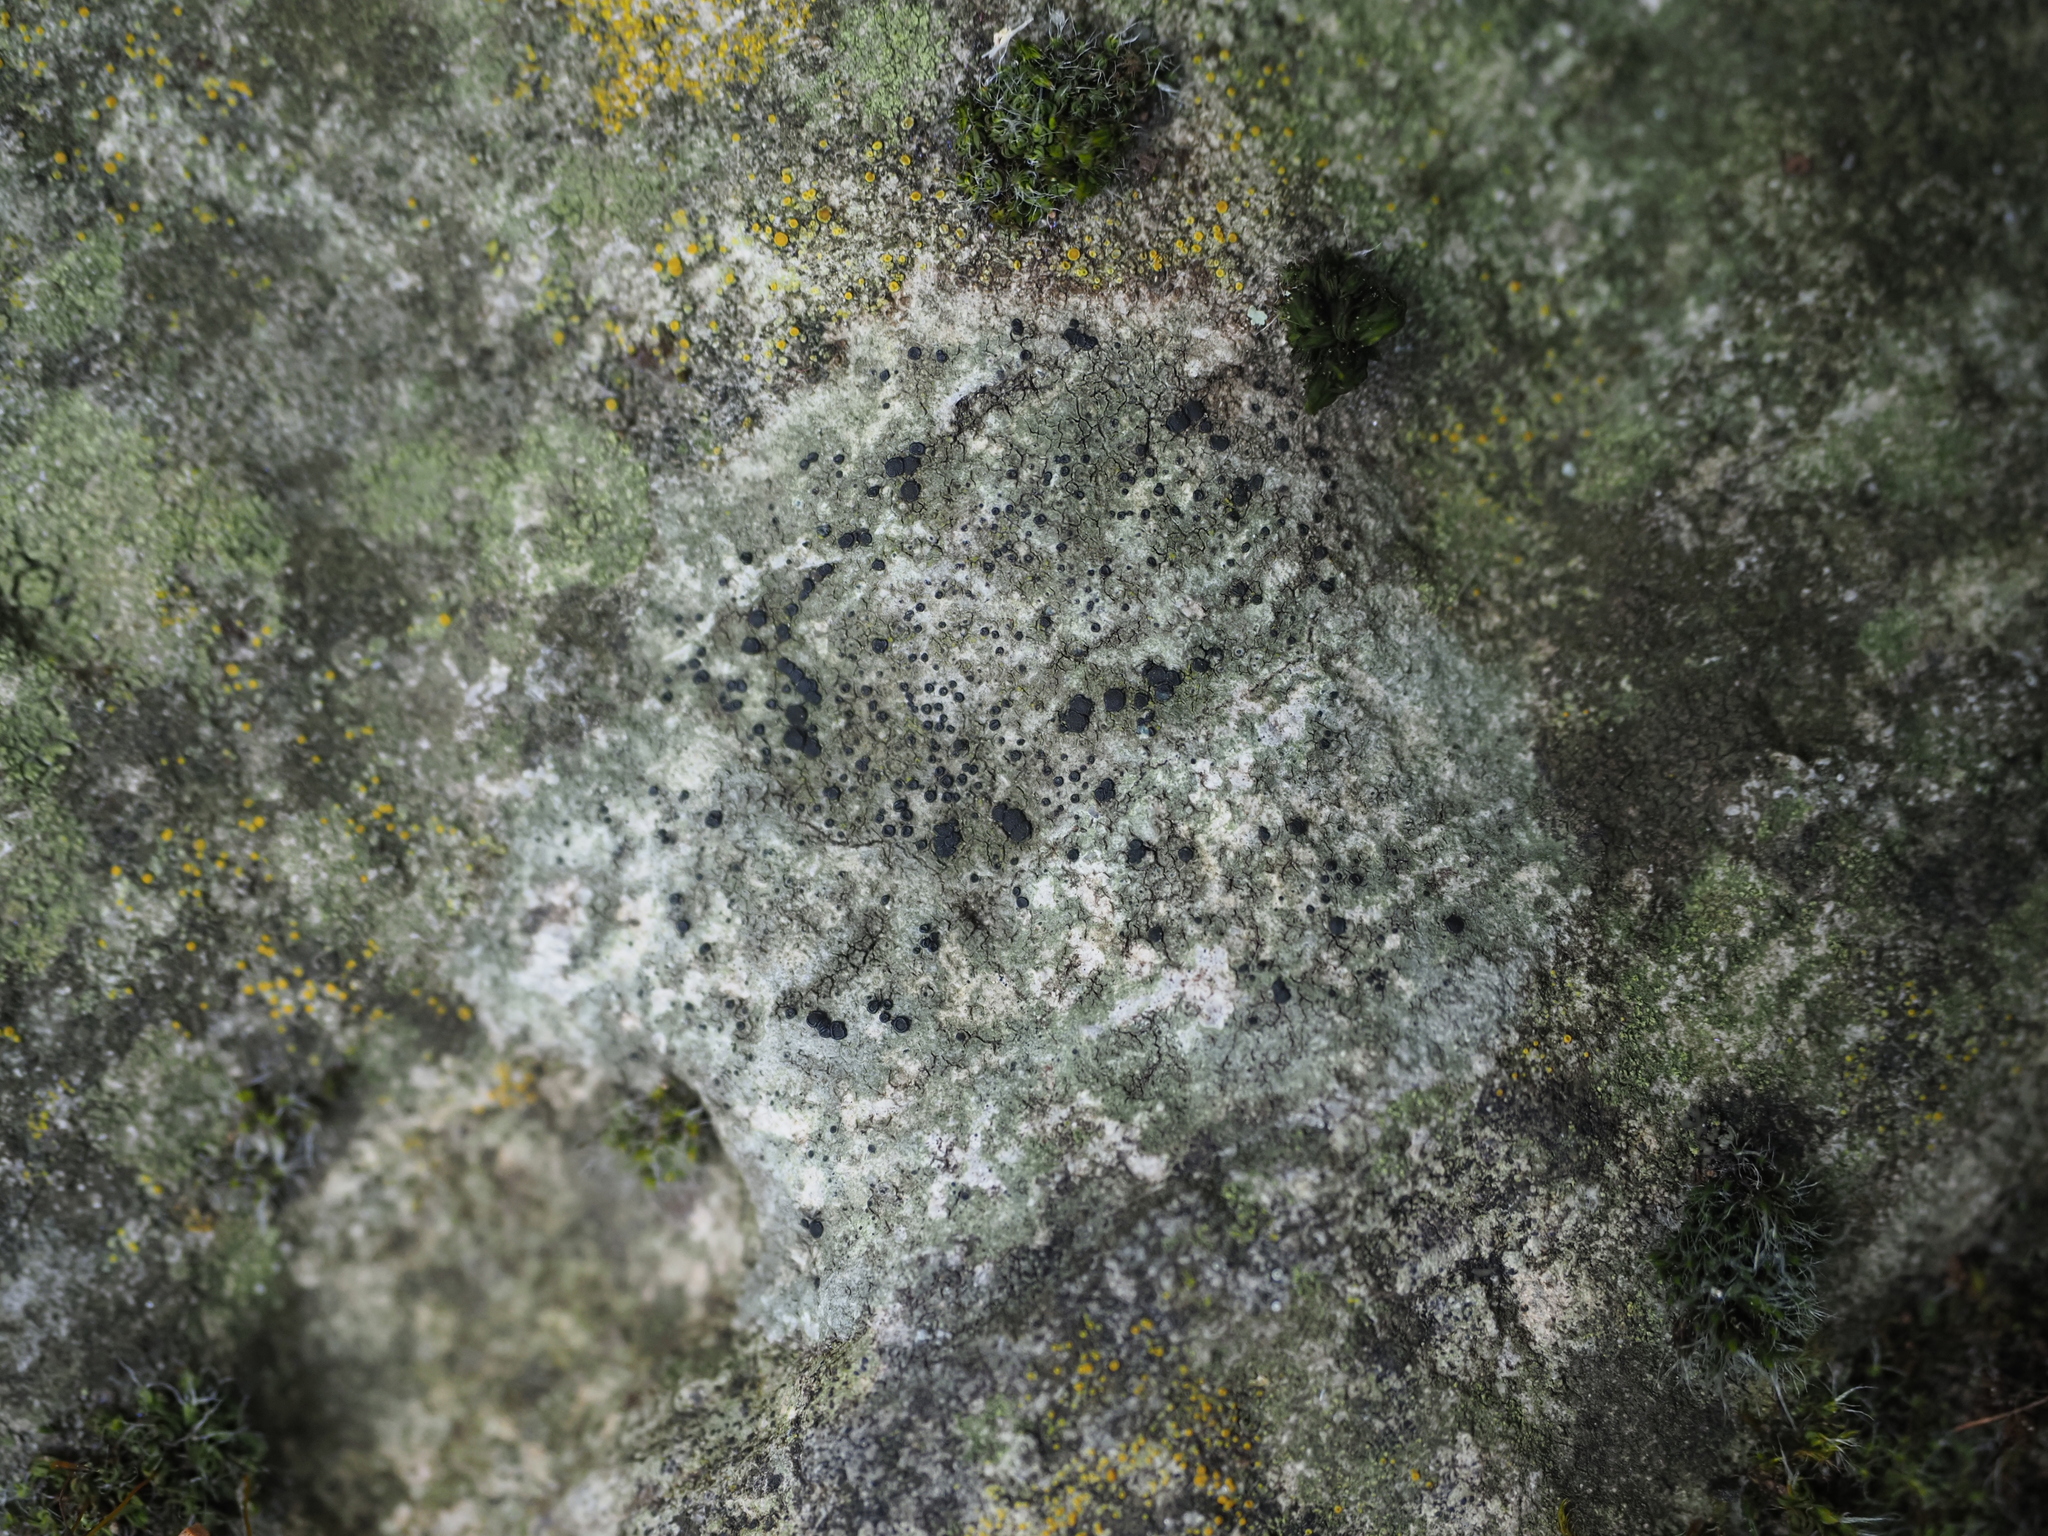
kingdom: Fungi
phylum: Ascomycota
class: Lecanoromycetes
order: Lecanorales
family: Lecanoraceae
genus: Lecidella
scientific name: Lecidella stigmatea
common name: Limestone disc lichen
